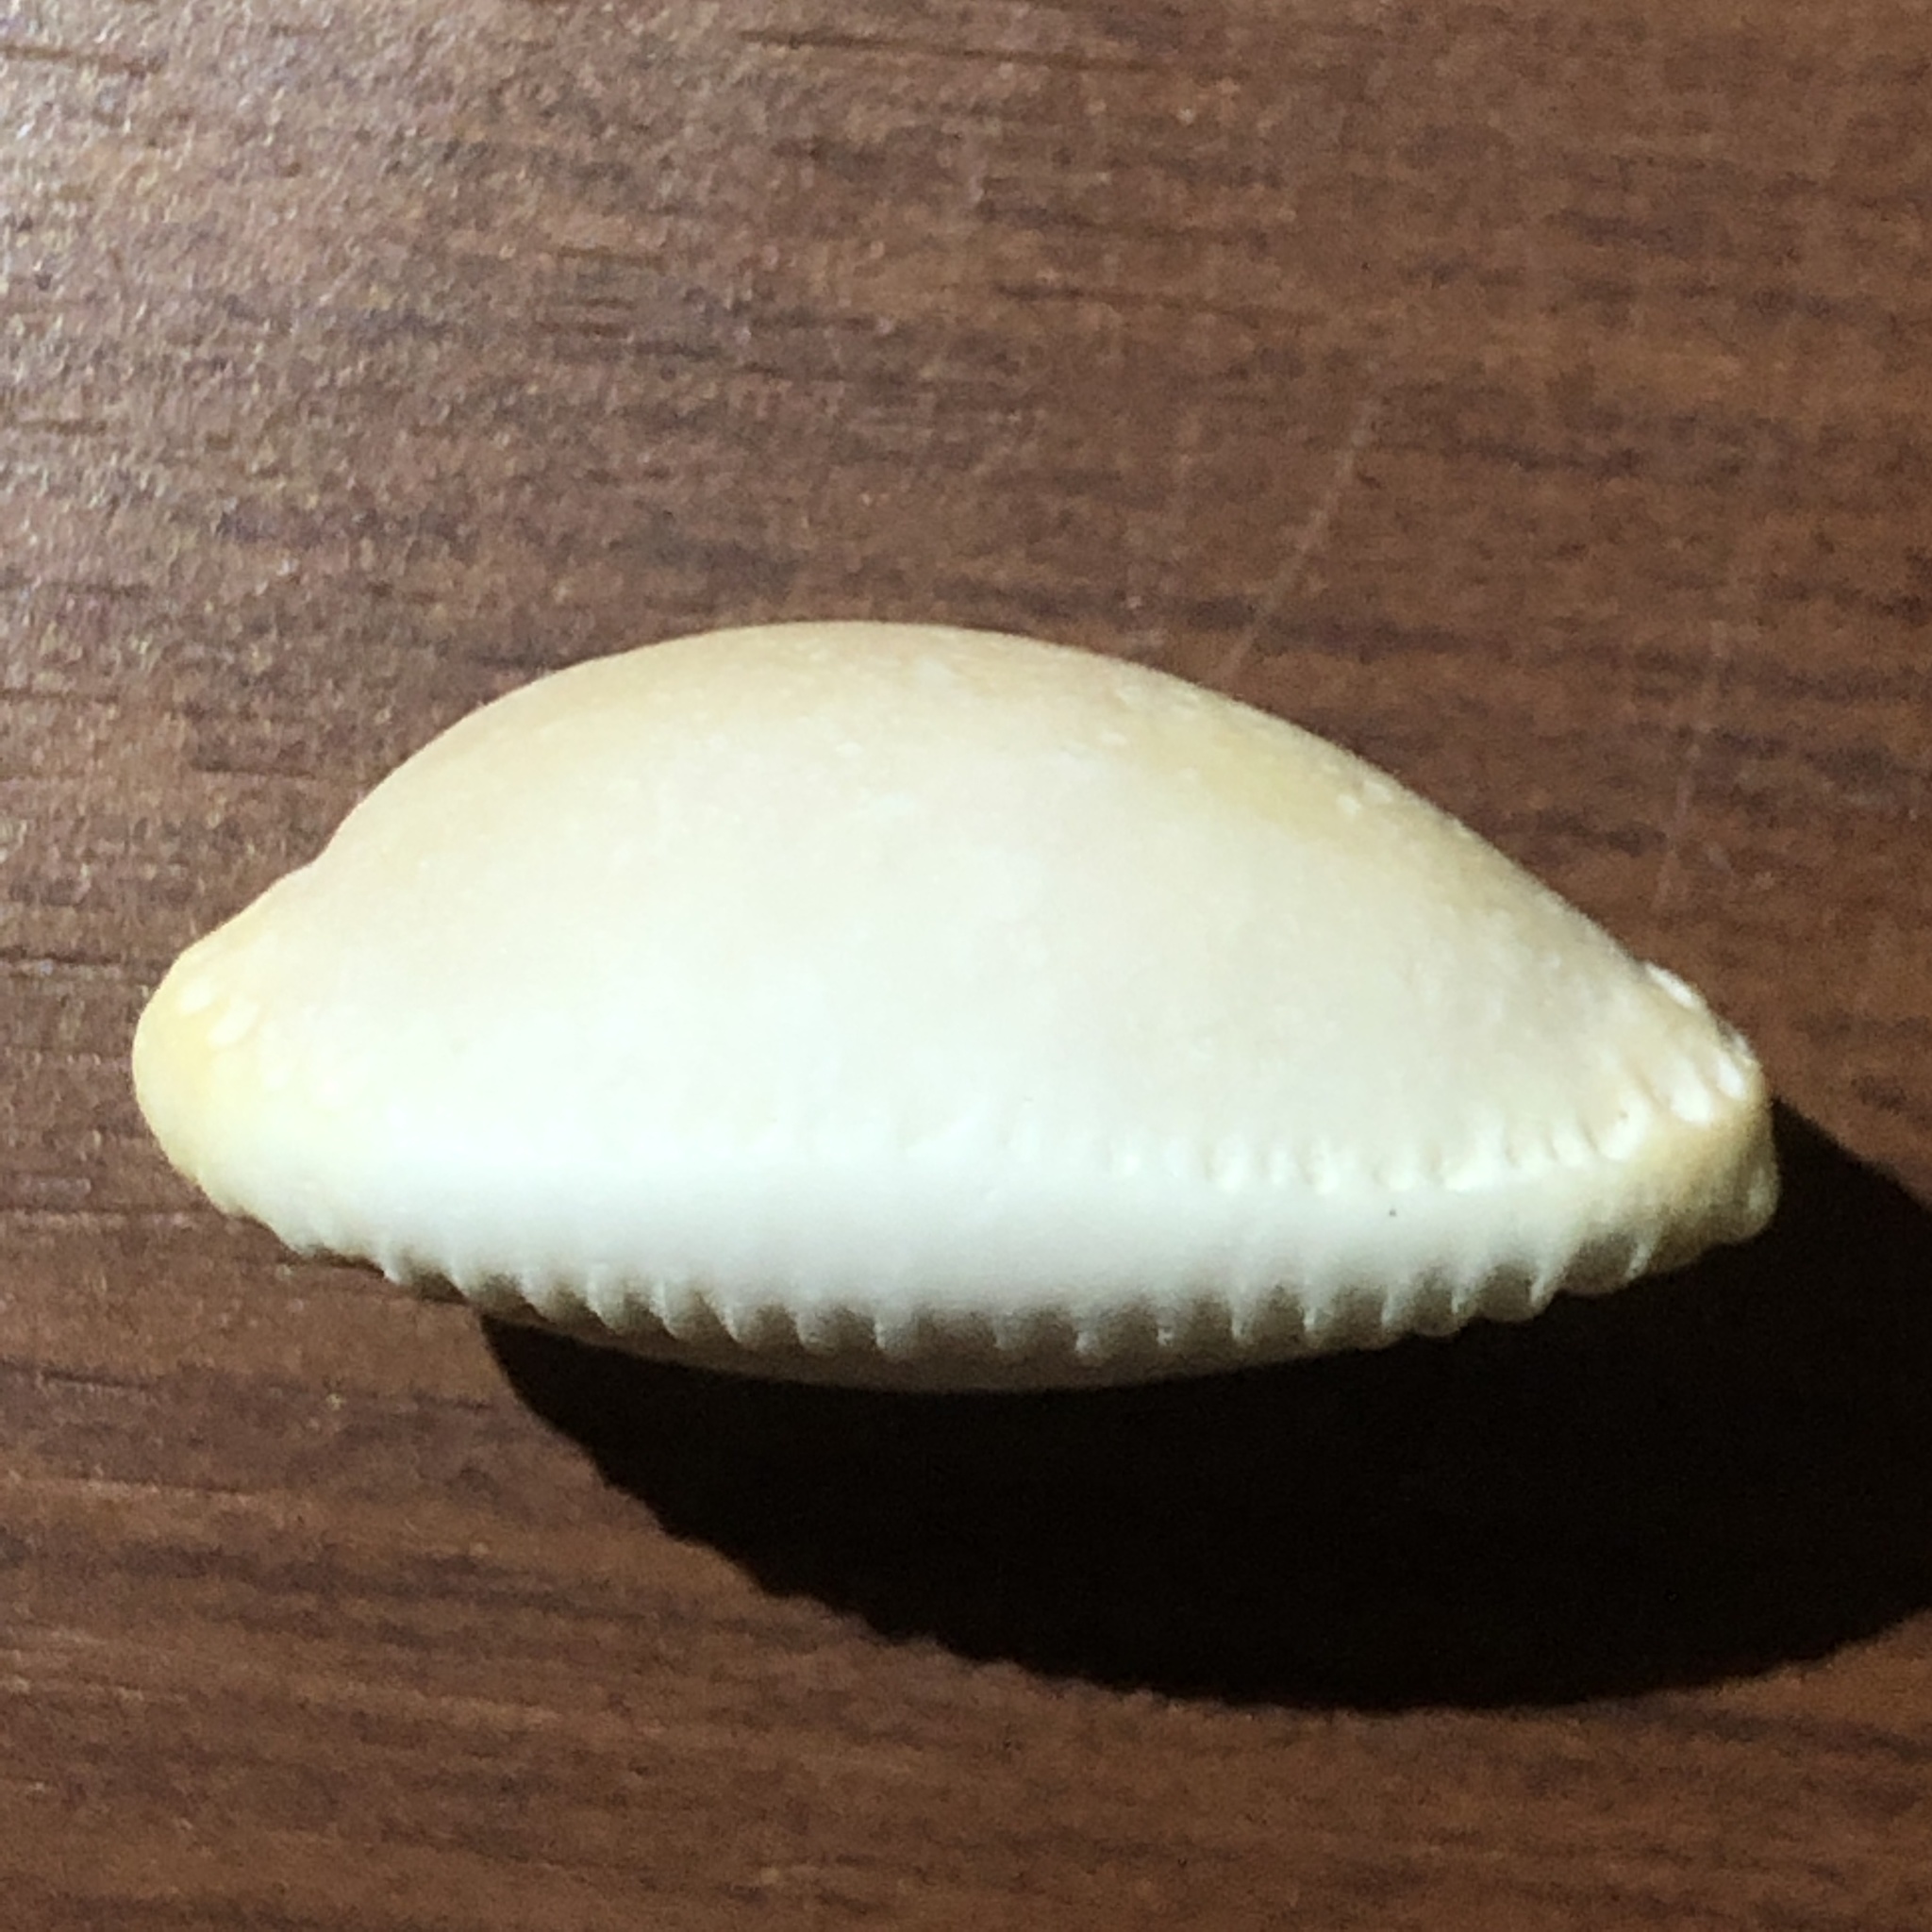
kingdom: Animalia
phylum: Mollusca
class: Gastropoda
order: Littorinimorpha
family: Cypraeidae
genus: Staphylaea
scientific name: Staphylaea limacina
